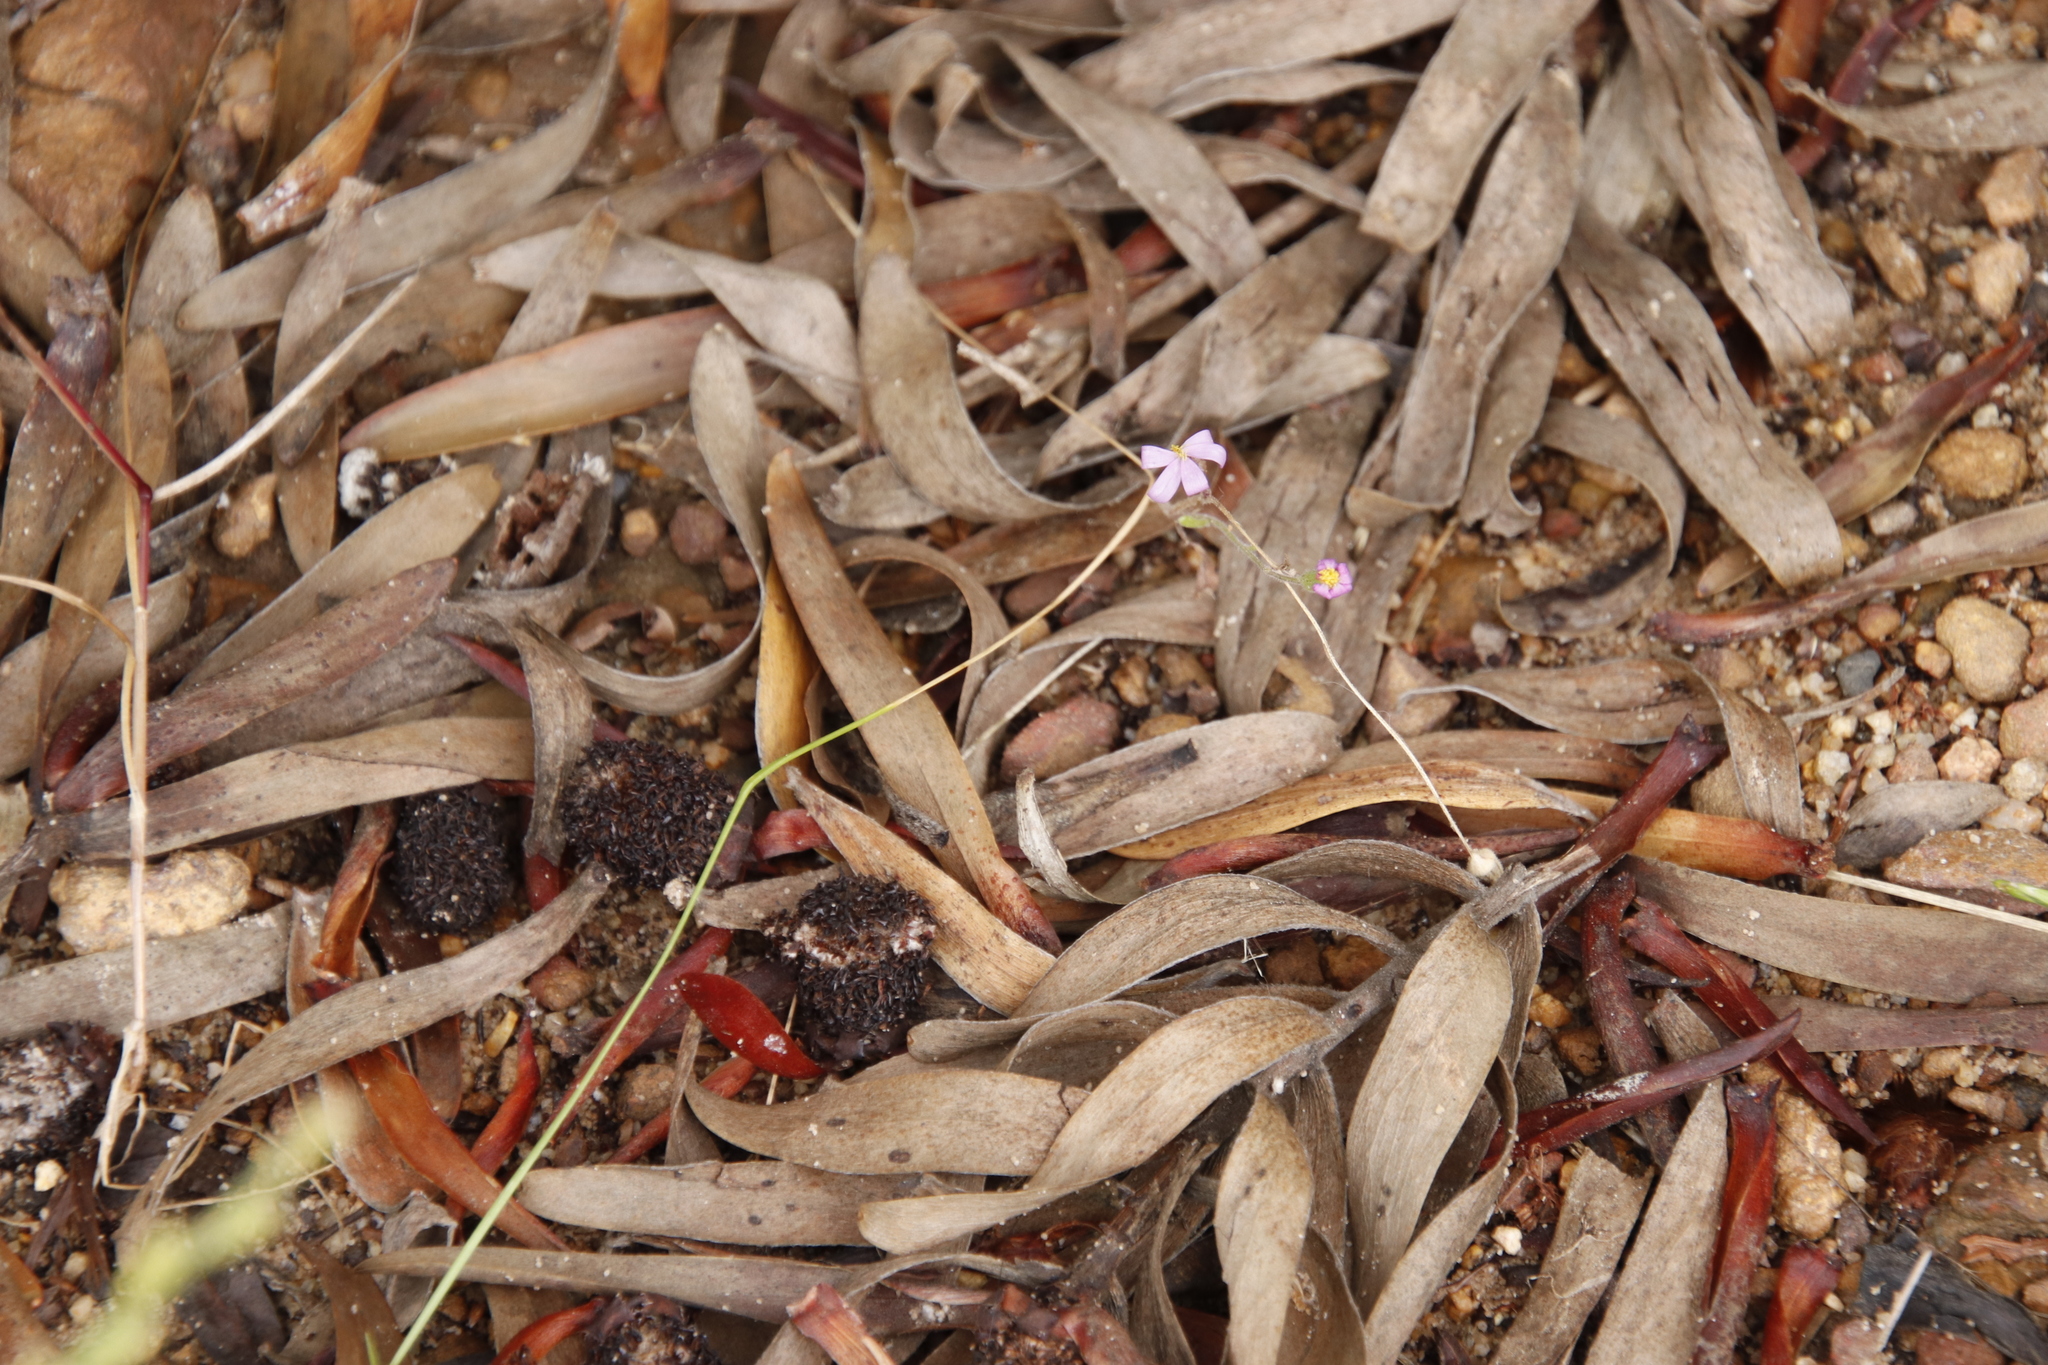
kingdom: Plantae
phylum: Tracheophyta
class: Magnoliopsida
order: Asterales
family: Asteraceae
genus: Senecio
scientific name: Senecio arenarius
